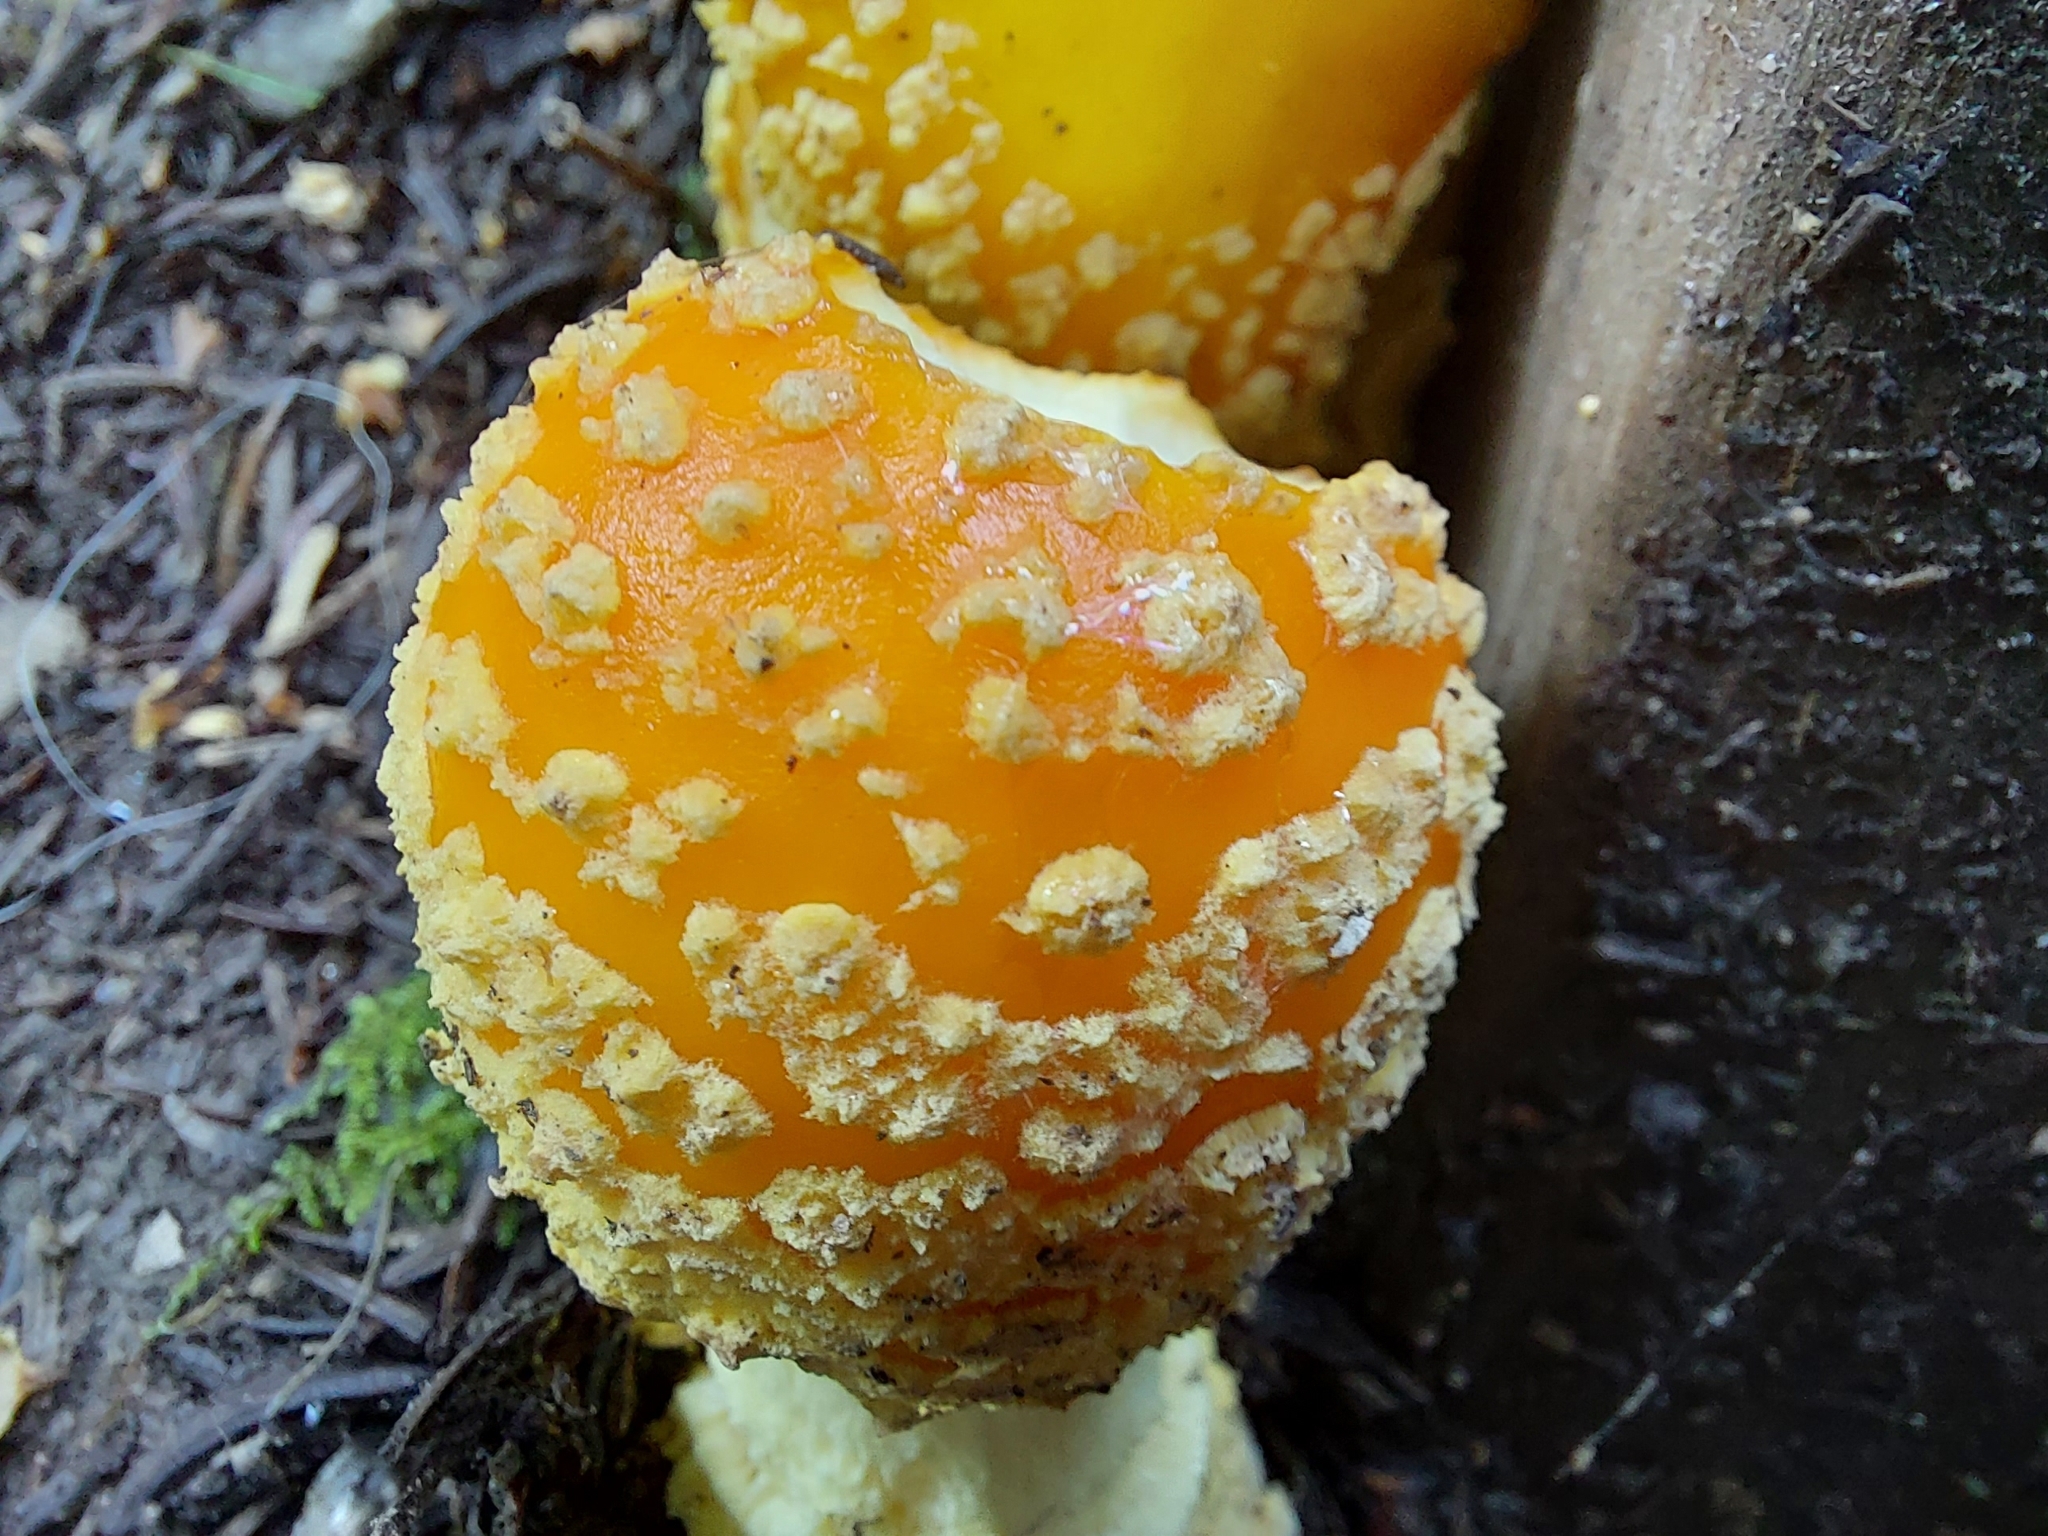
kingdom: Fungi
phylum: Basidiomycota
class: Agaricomycetes
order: Agaricales
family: Amanitaceae
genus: Amanita
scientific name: Amanita muscaria
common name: Fly agaric
